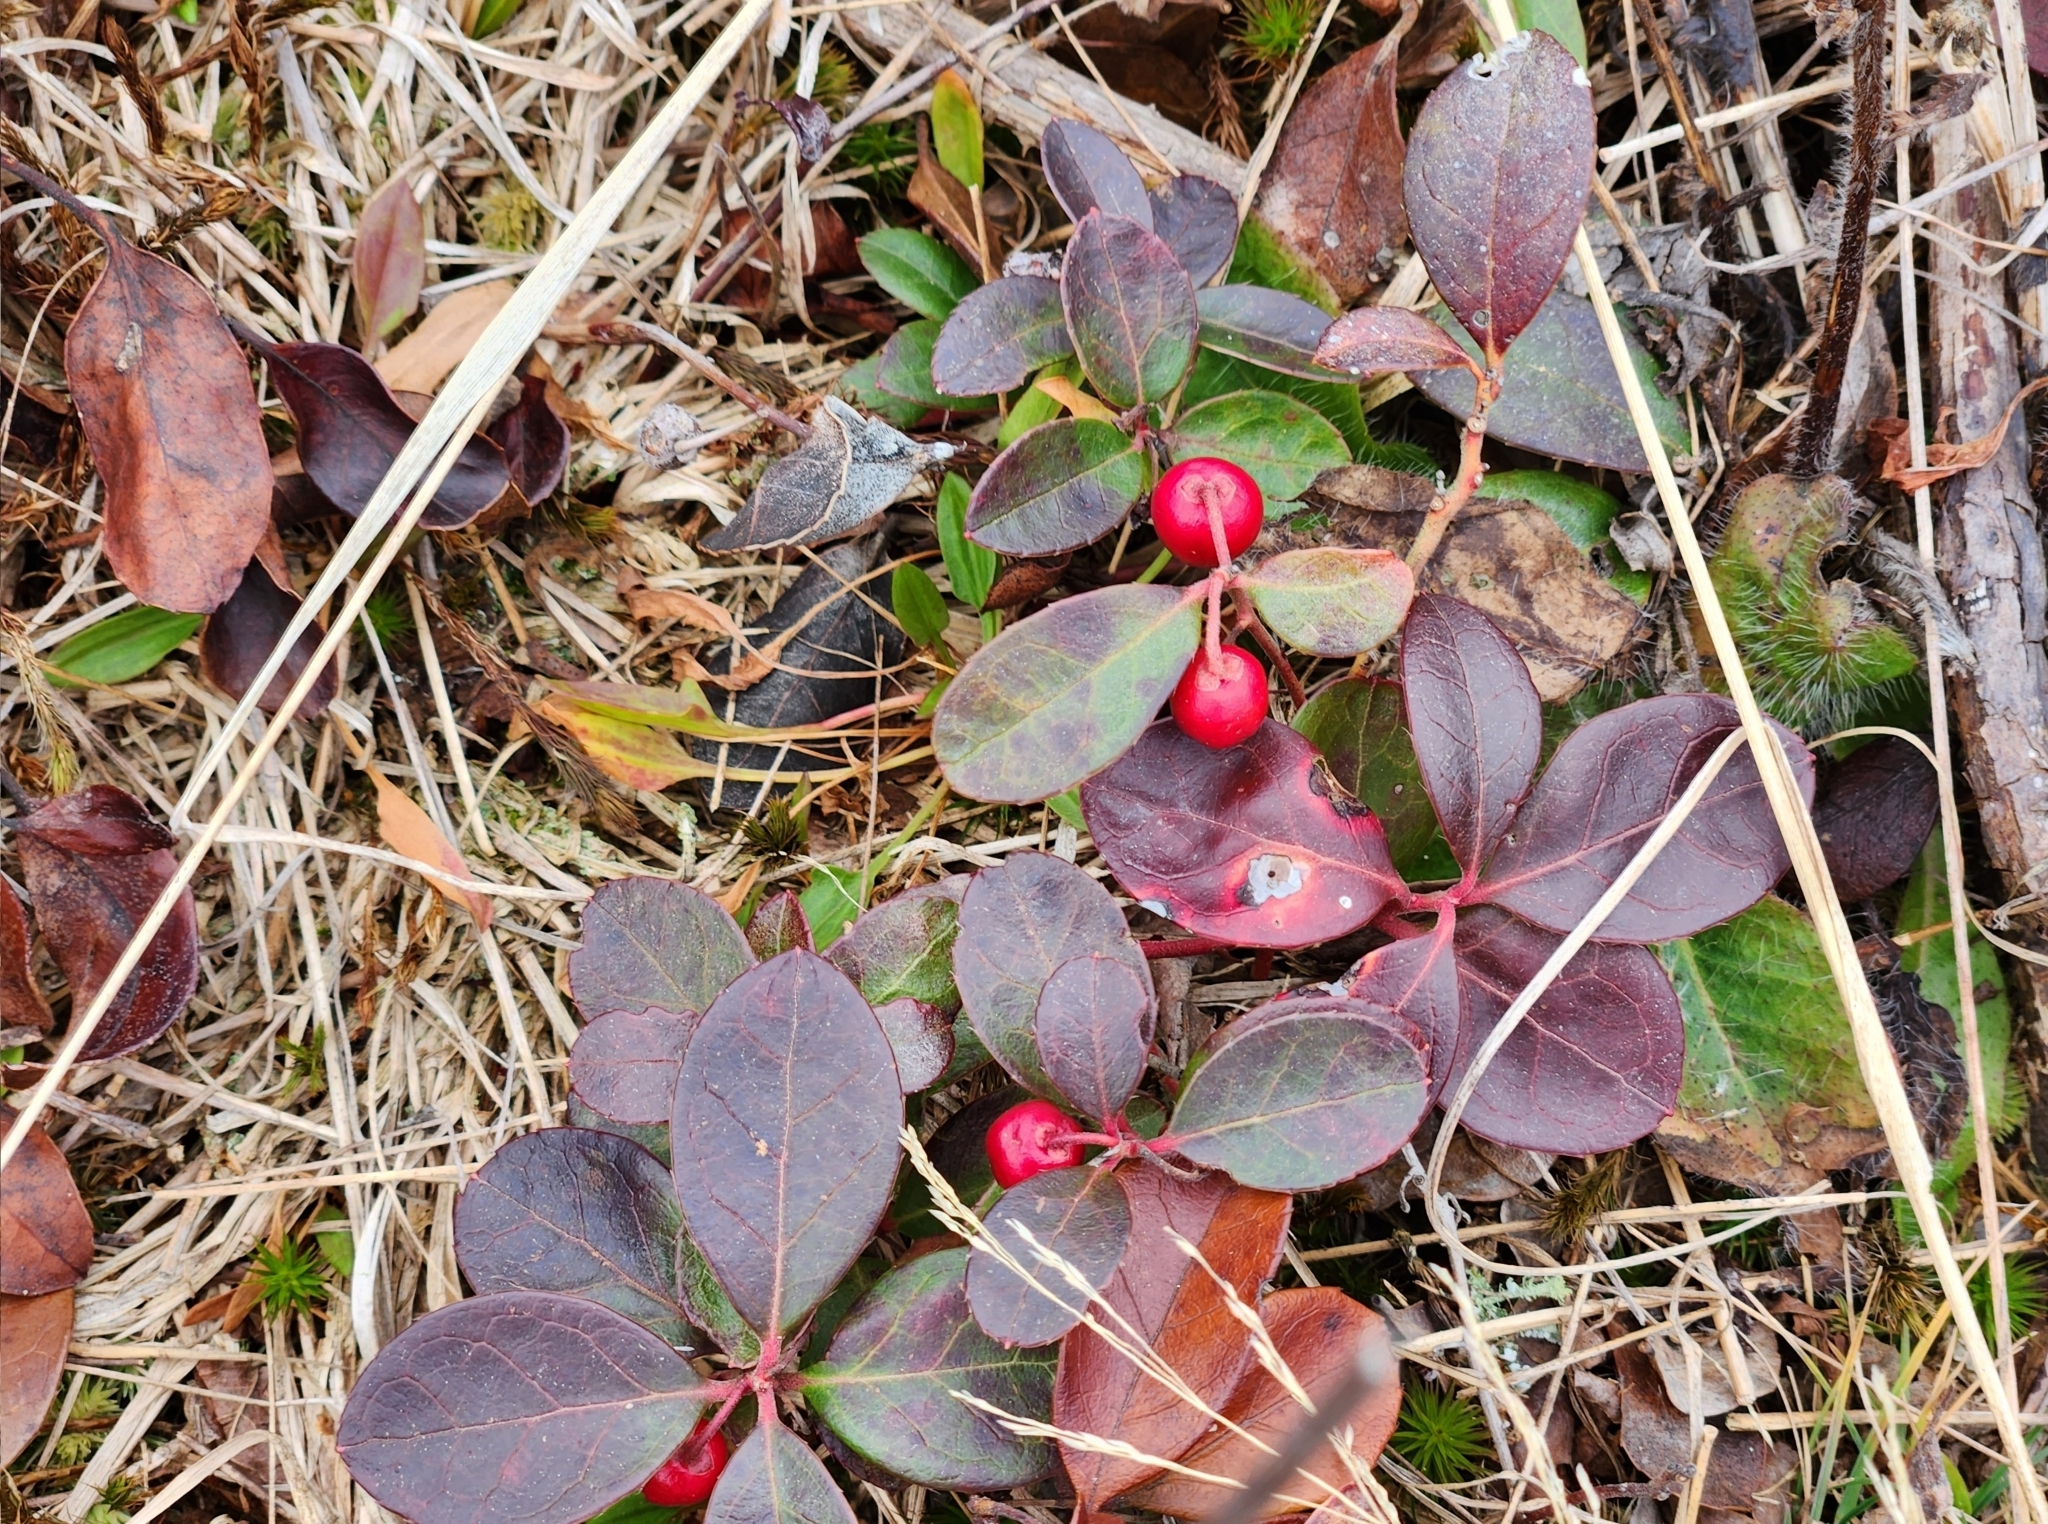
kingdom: Plantae
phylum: Tracheophyta
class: Magnoliopsida
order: Ericales
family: Ericaceae
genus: Gaultheria
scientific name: Gaultheria procumbens
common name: Checkerberry
